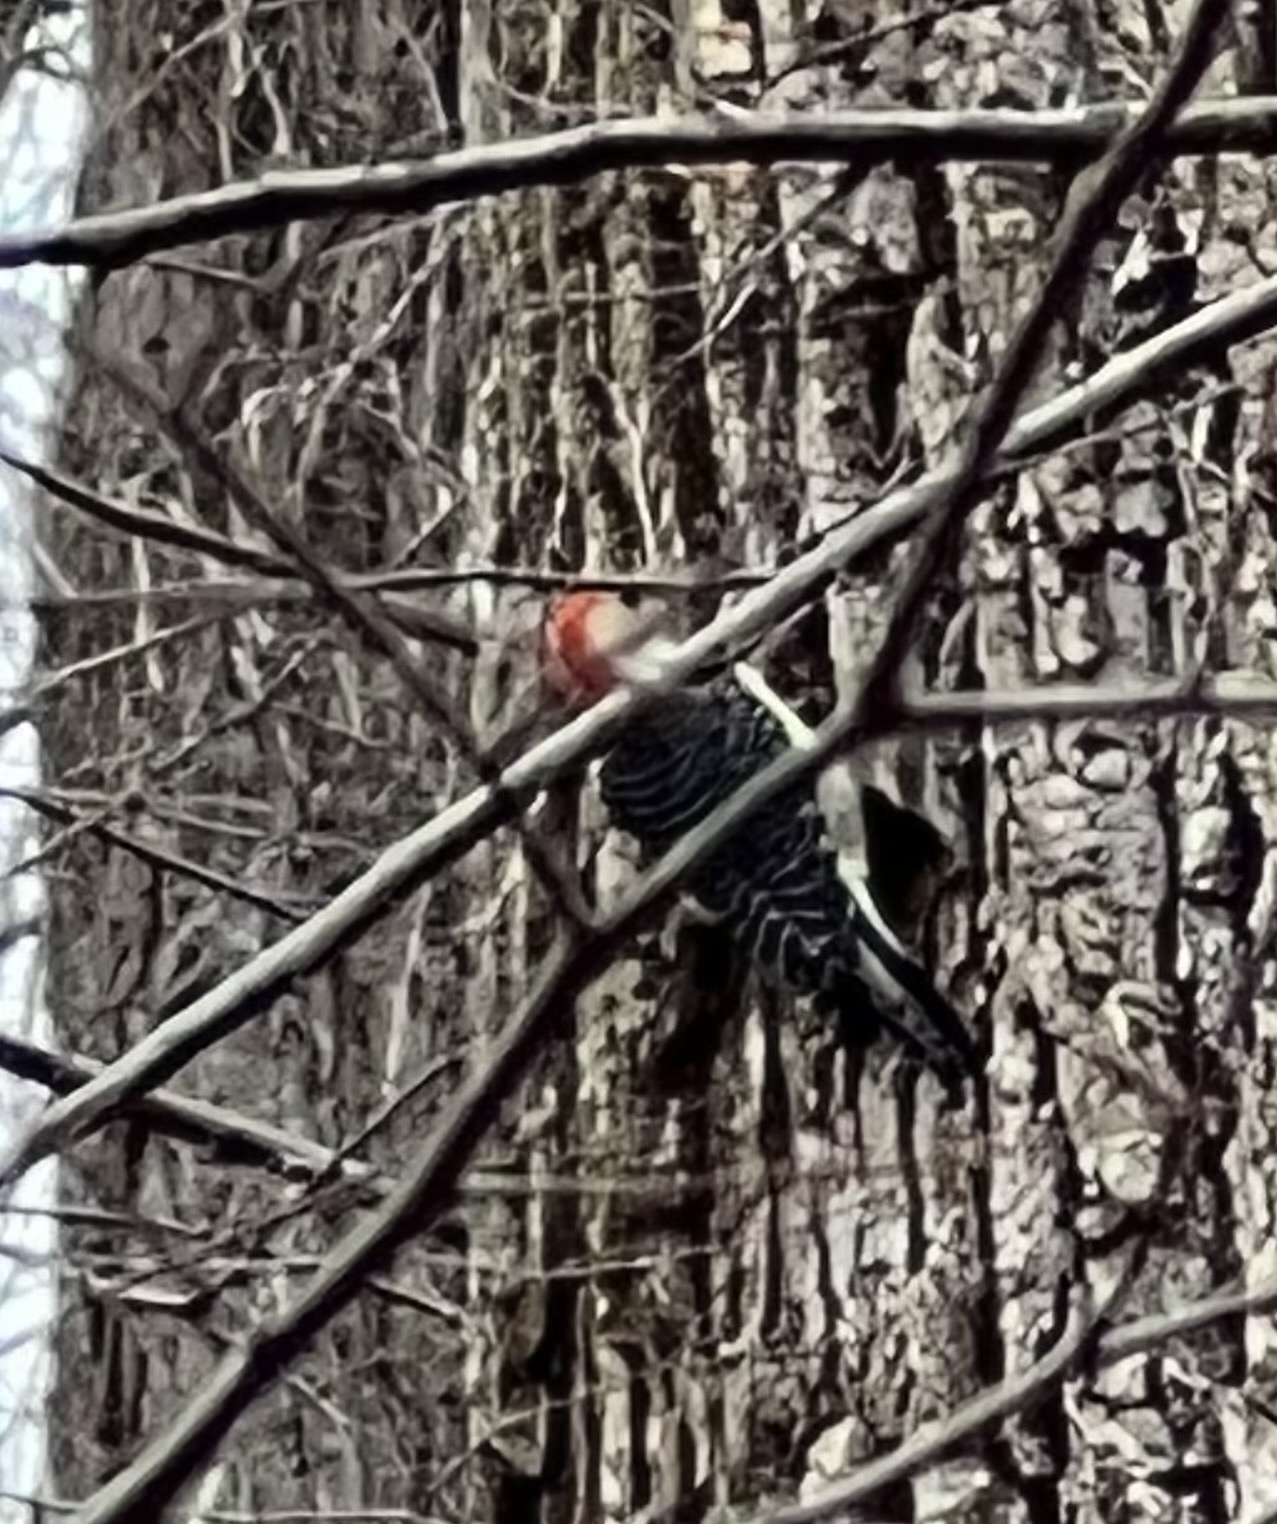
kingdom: Animalia
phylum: Chordata
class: Aves
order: Piciformes
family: Picidae
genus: Melanerpes
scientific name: Melanerpes carolinus
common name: Red-bellied woodpecker
